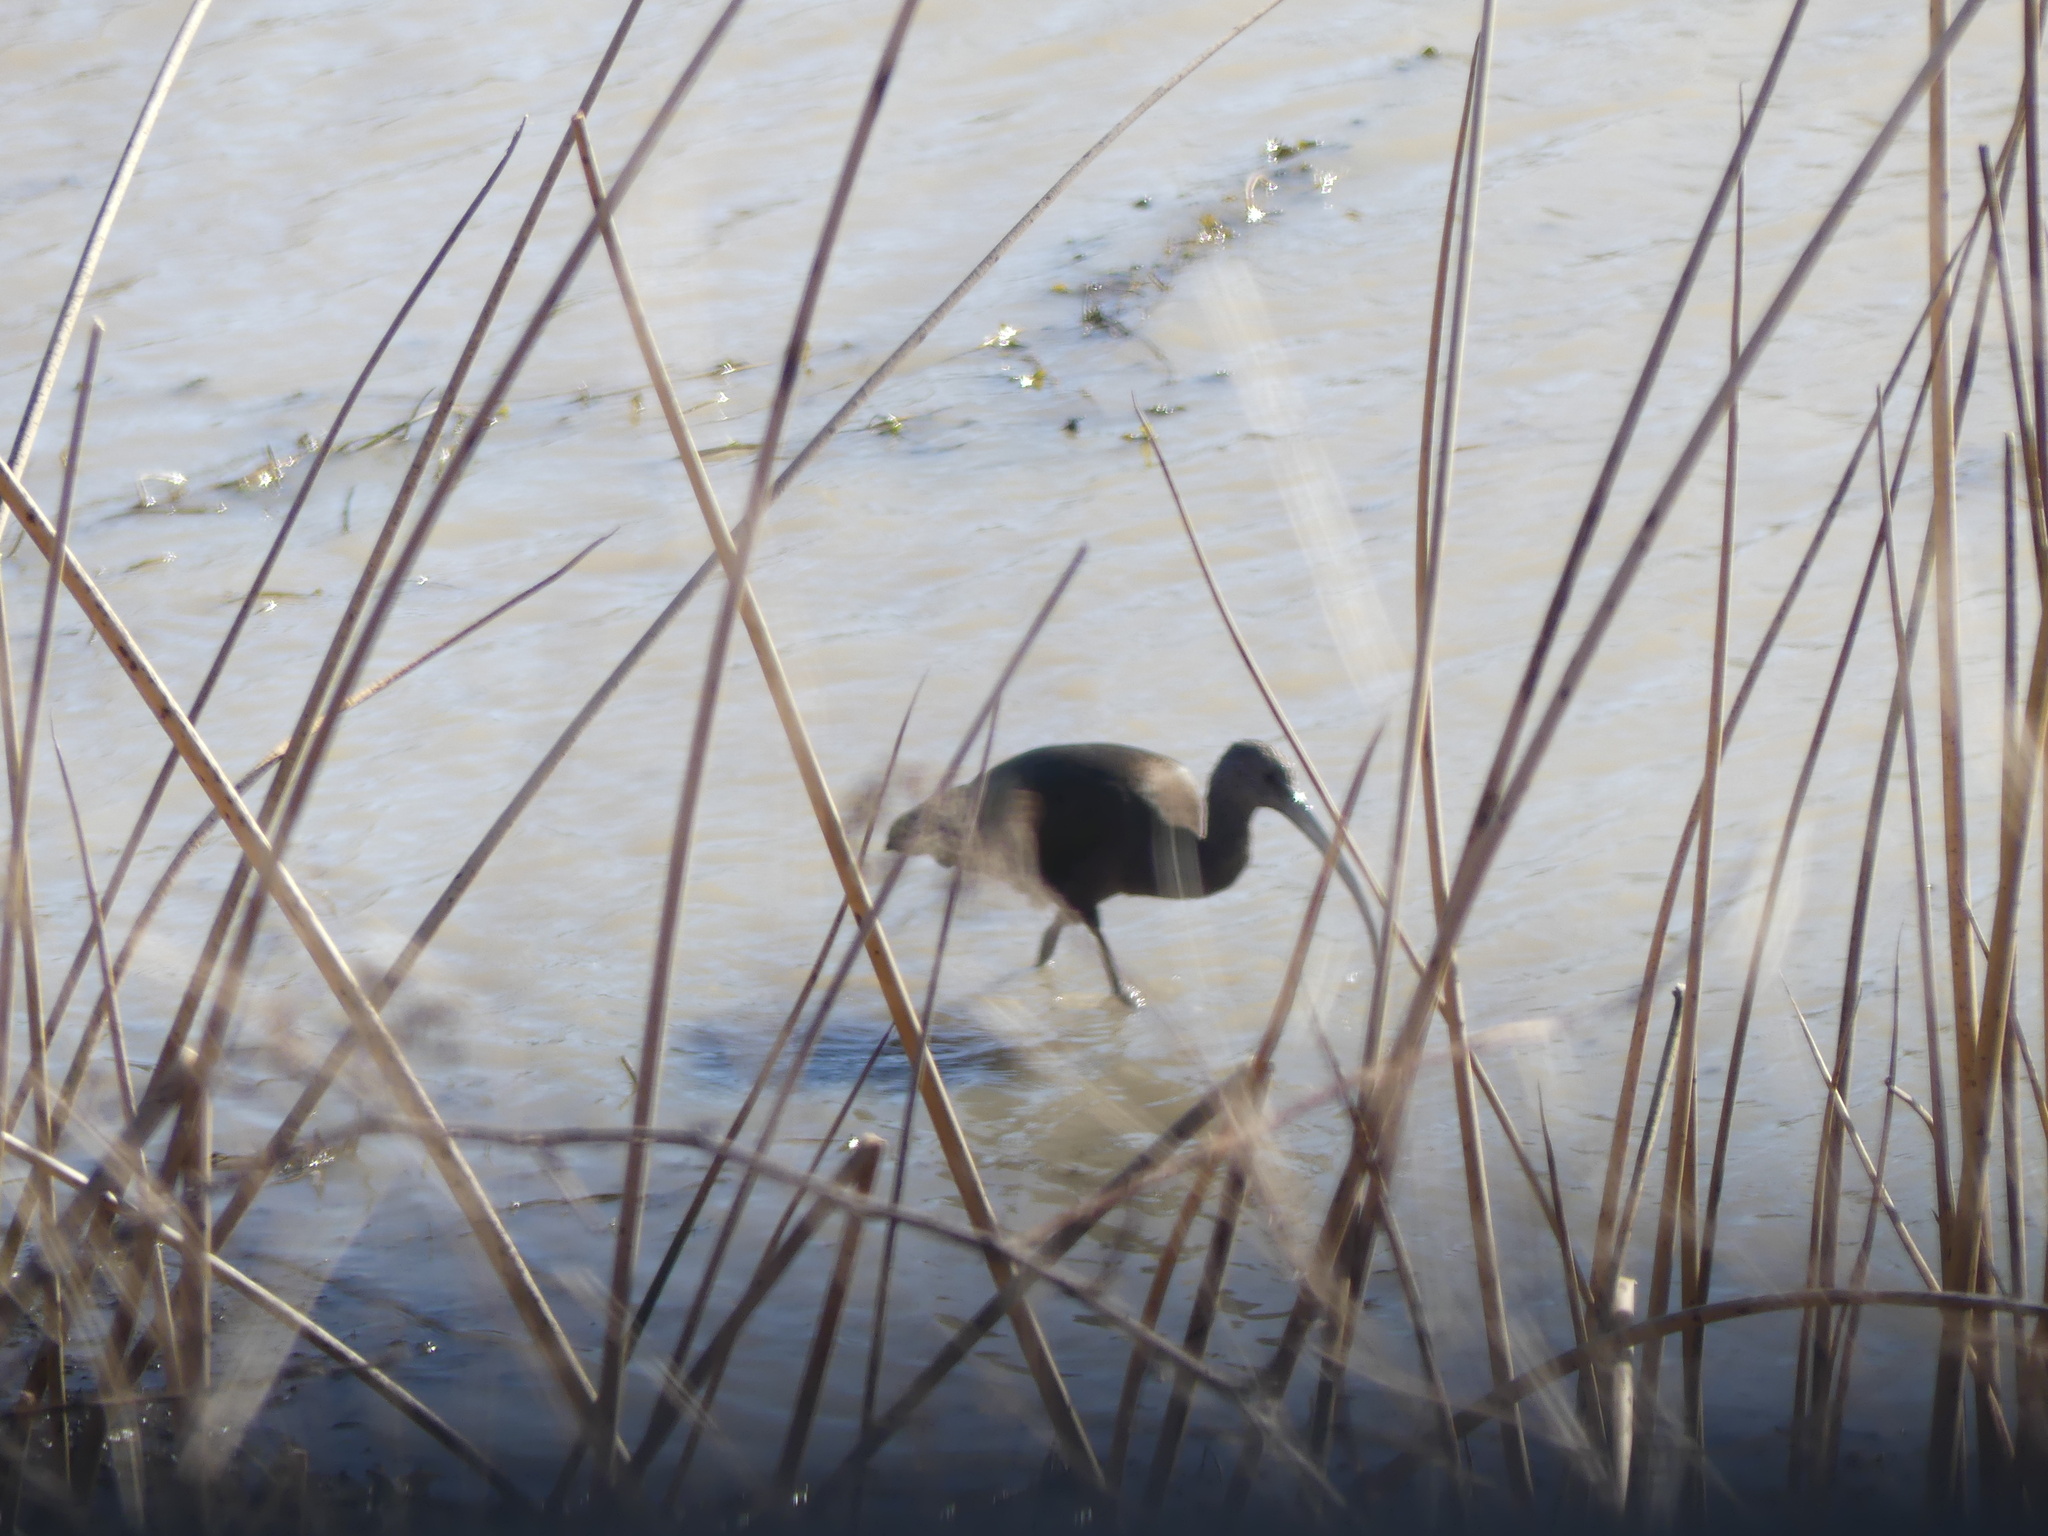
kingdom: Animalia
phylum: Chordata
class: Aves
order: Pelecaniformes
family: Threskiornithidae
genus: Plegadis
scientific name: Plegadis chihi
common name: White-faced ibis
